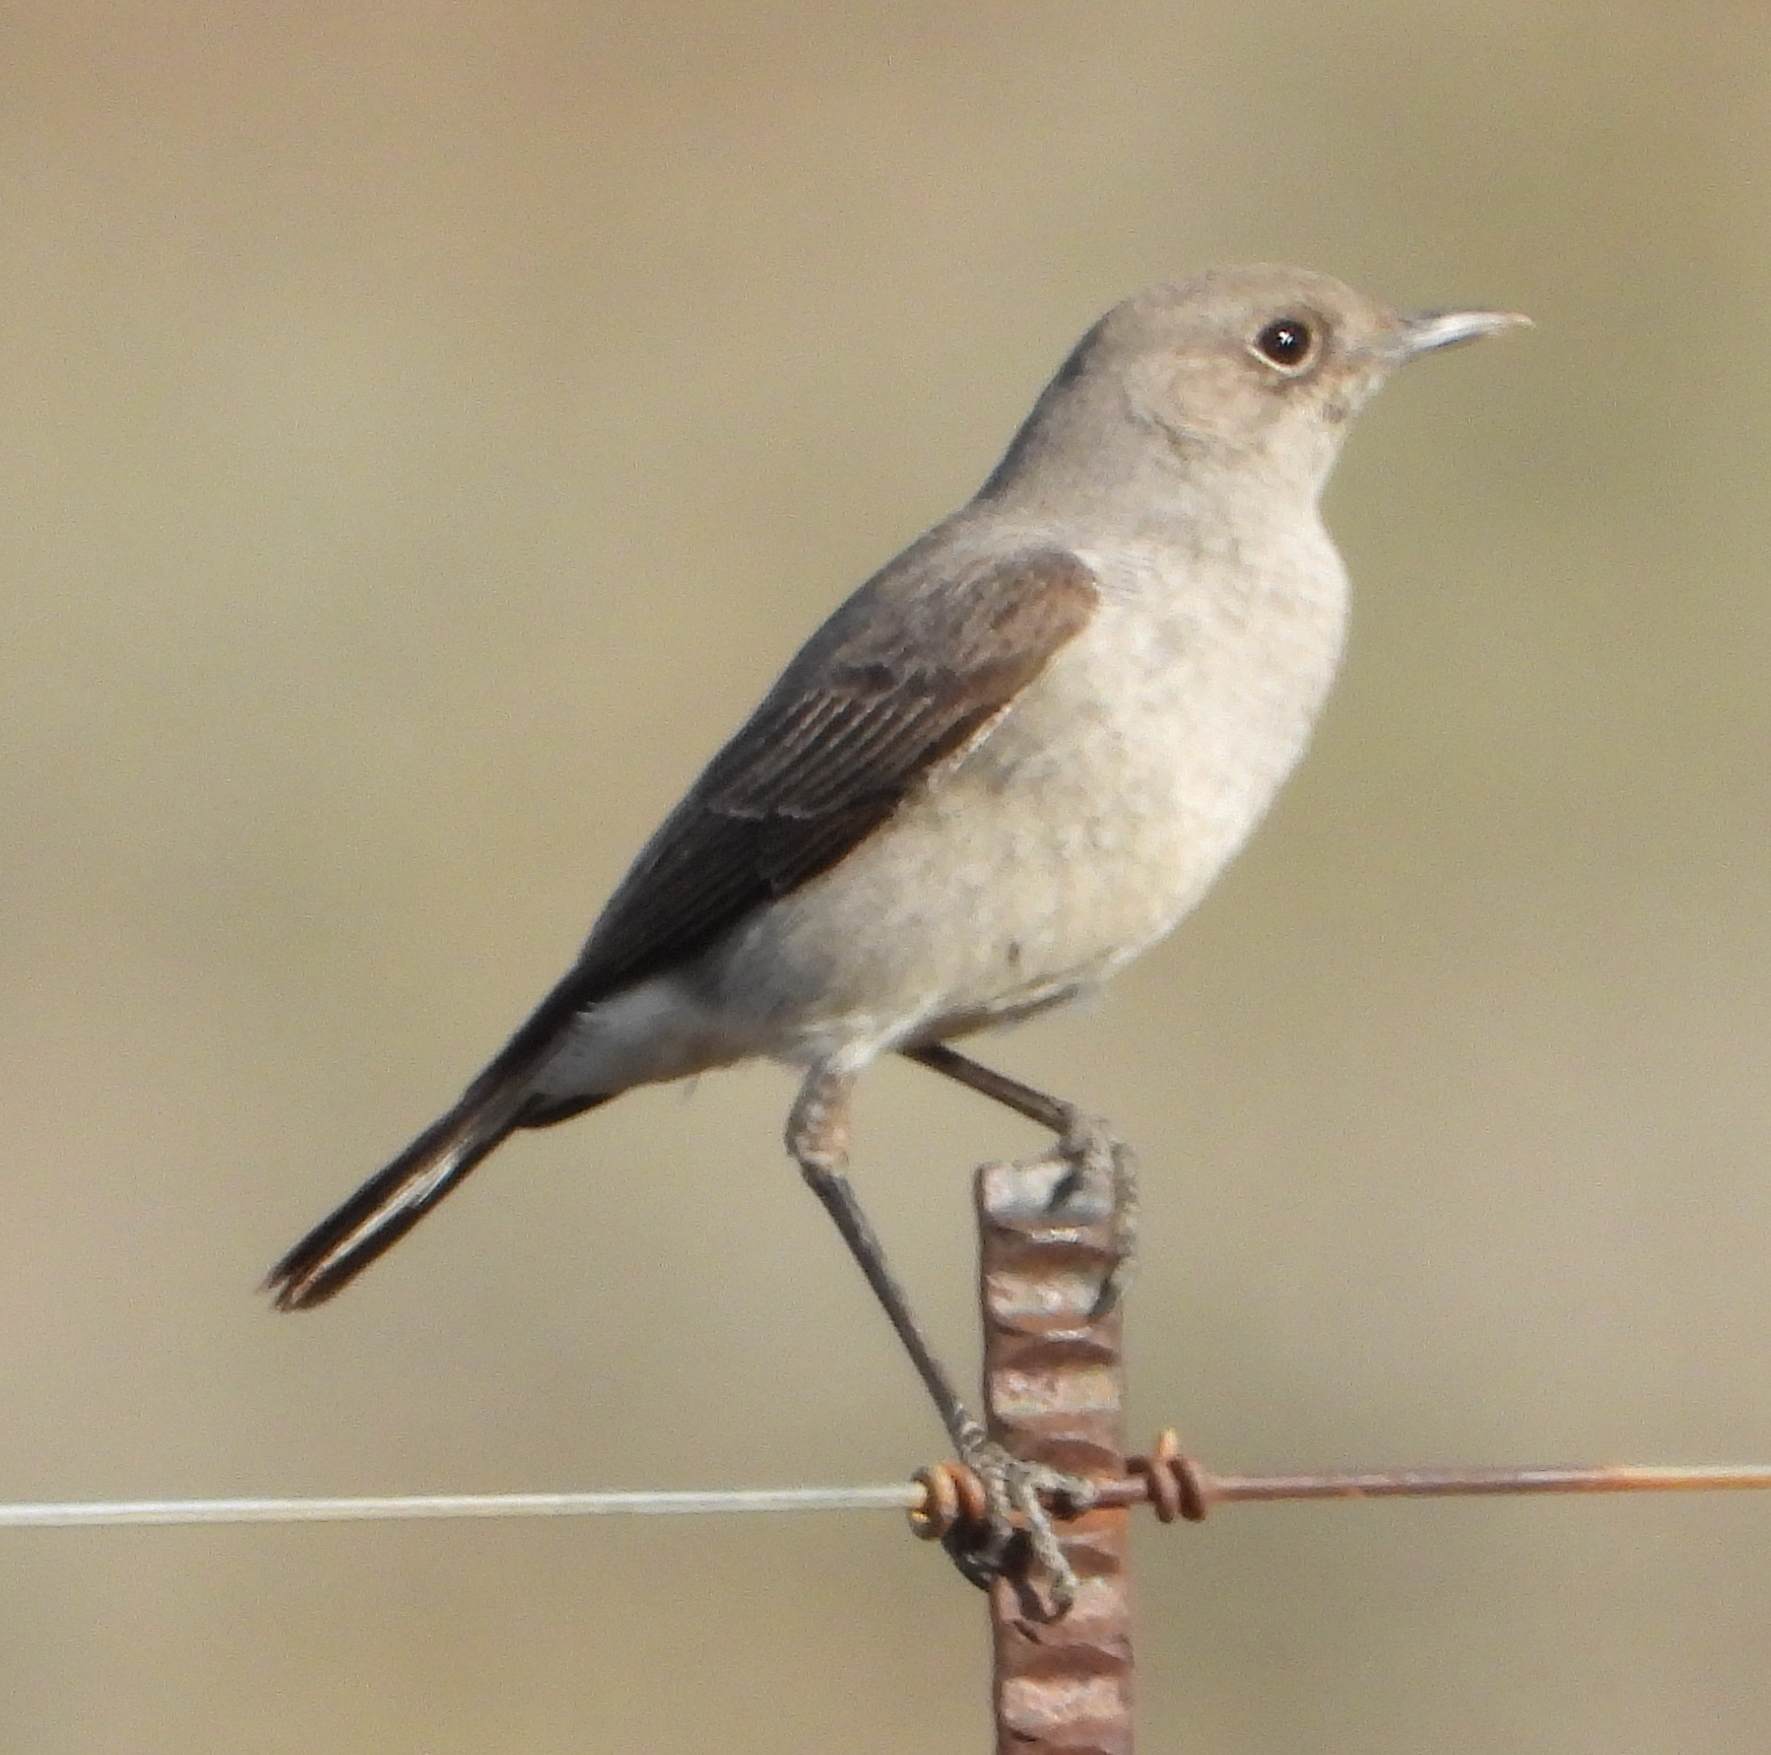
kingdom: Animalia
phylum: Chordata
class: Aves
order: Passeriformes
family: Muscicapidae
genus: Emarginata
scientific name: Emarginata schlegelii
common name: Karoo chat
